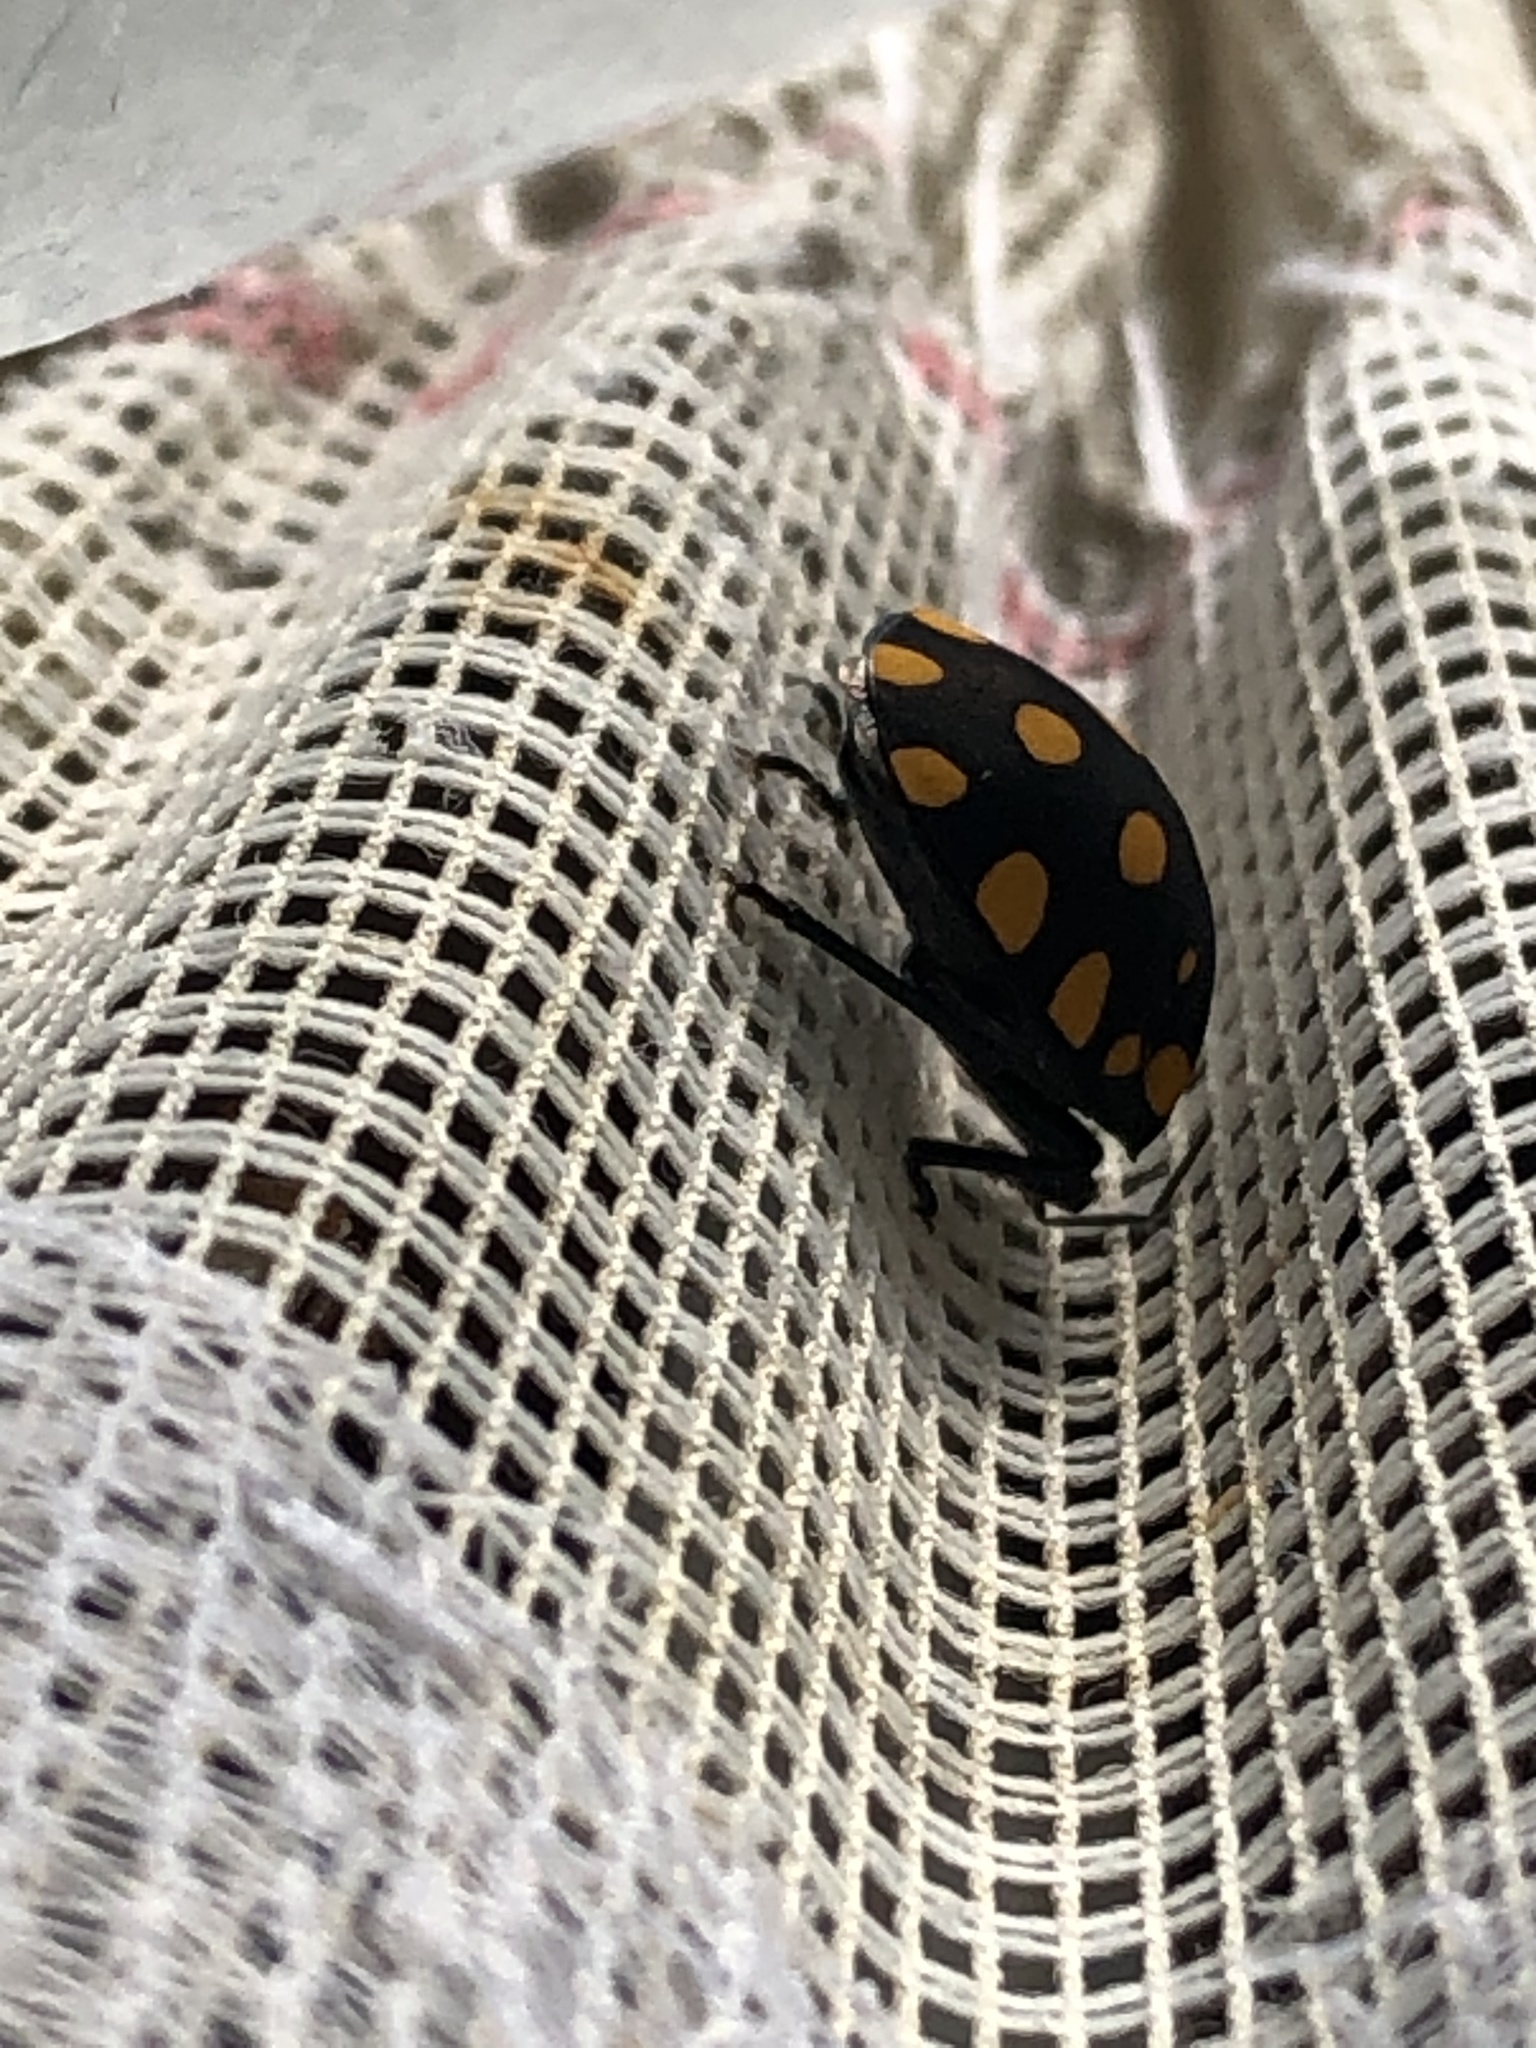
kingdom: Animalia
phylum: Arthropoda
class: Insecta
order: Hemiptera
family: Scutelleridae
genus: Pachycoris
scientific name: Pachycoris torridus
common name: Torrid jewel bug
